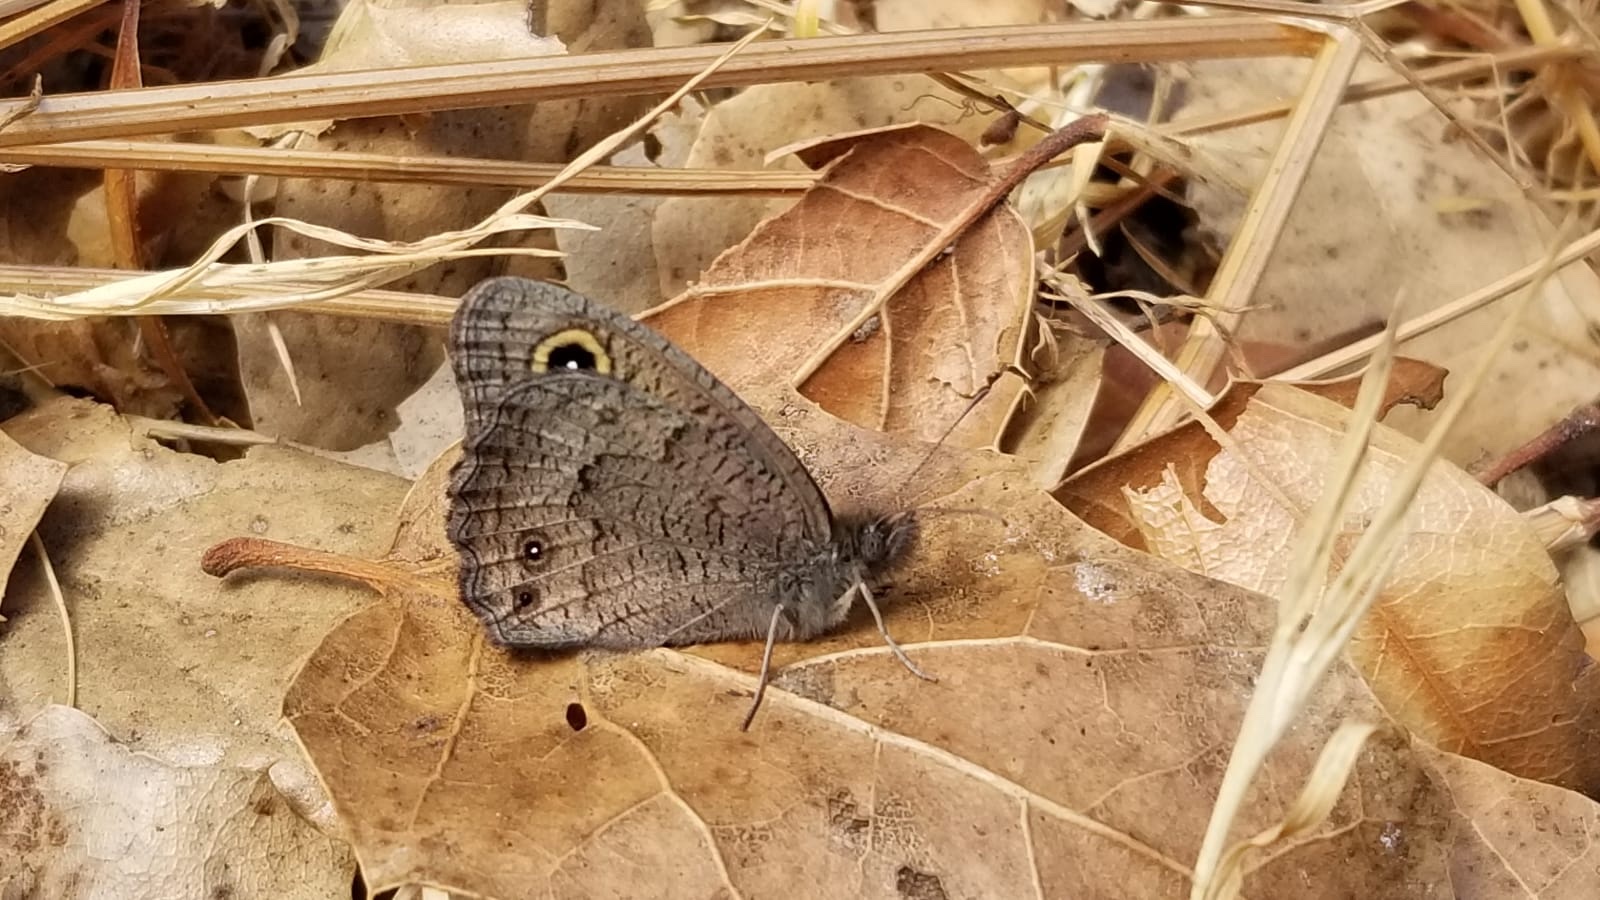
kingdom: Animalia
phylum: Arthropoda
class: Insecta
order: Lepidoptera
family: Nymphalidae
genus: Cercyonis
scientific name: Cercyonis sthenele
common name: Great basin wood-nymph
